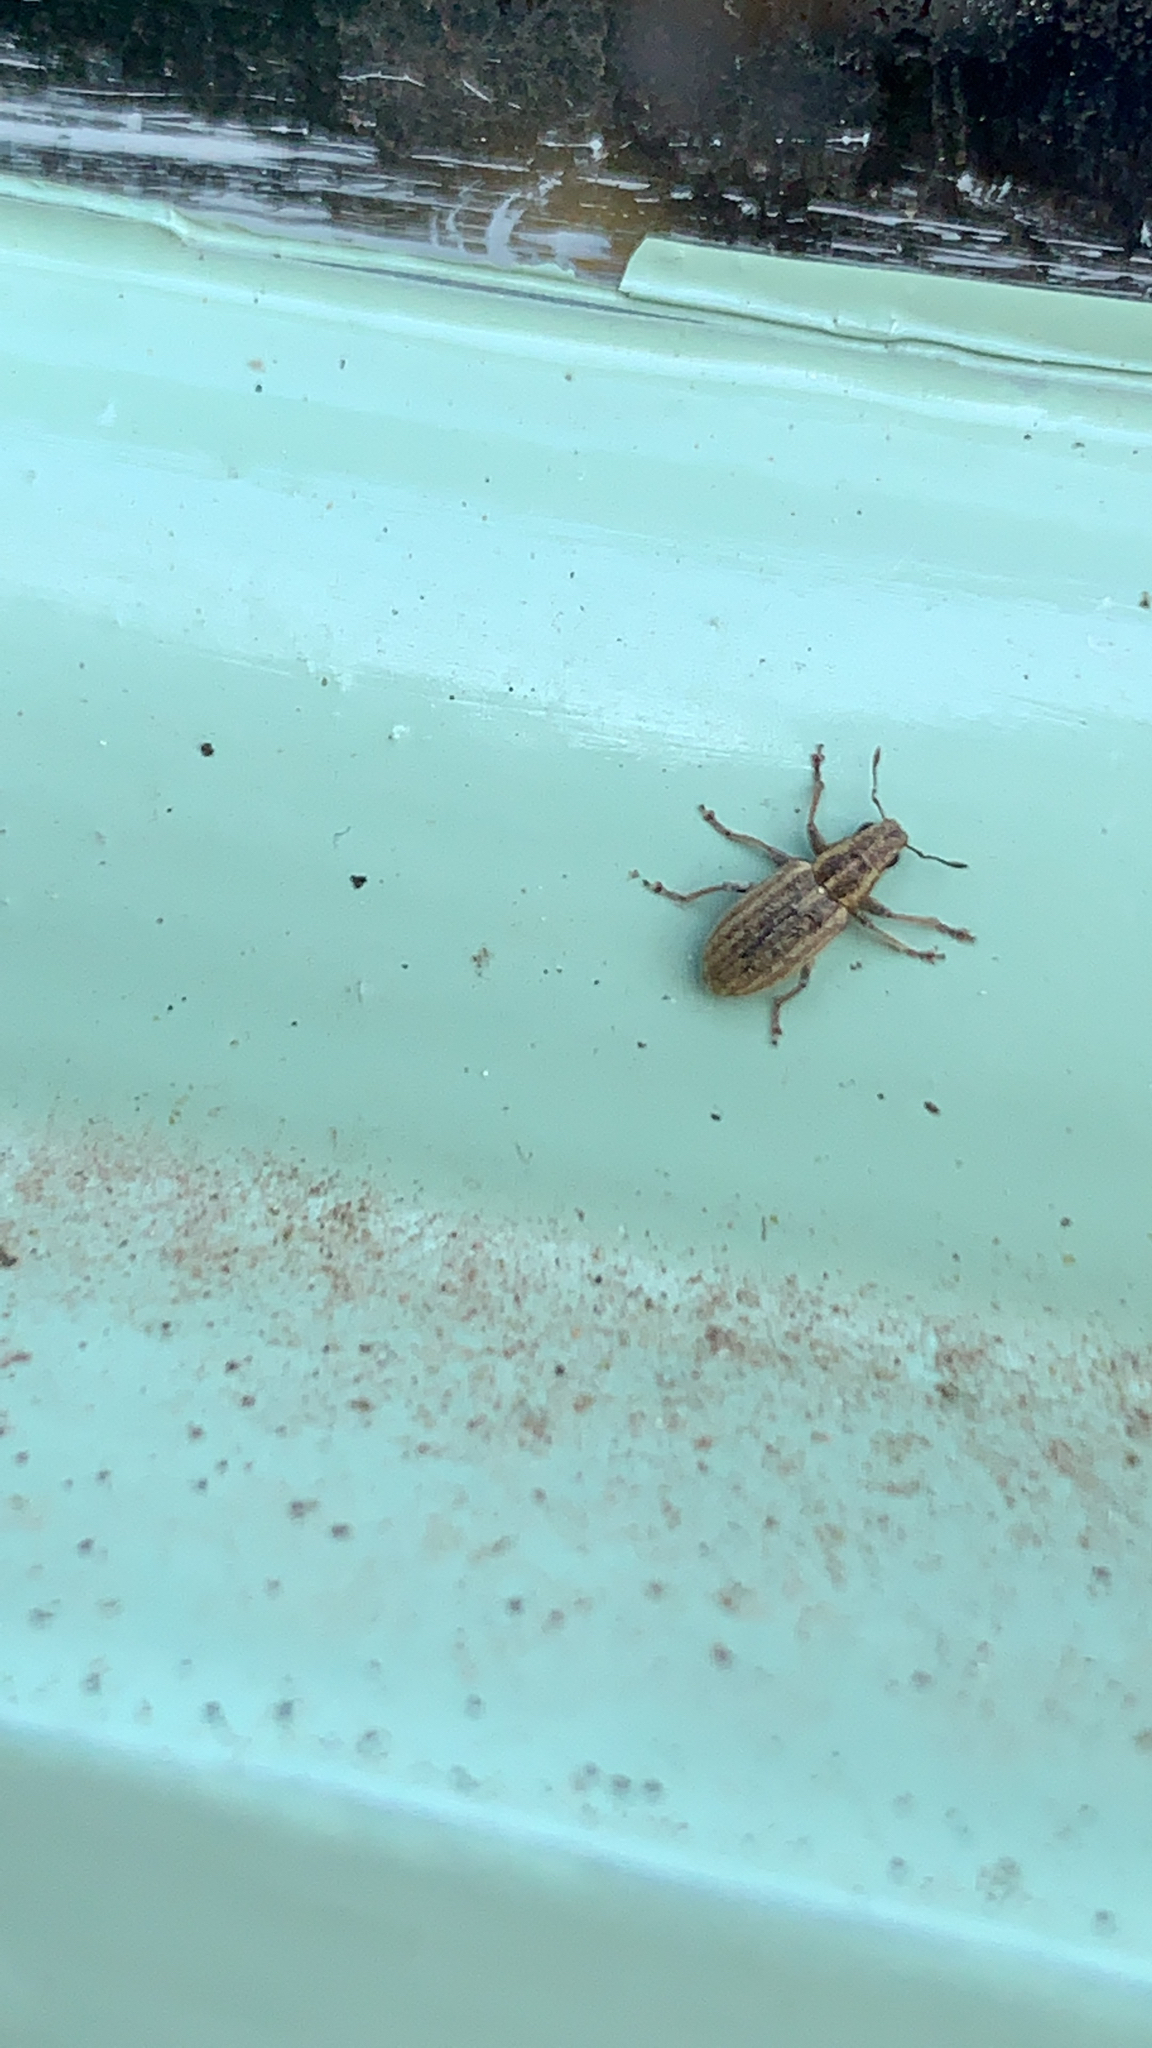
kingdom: Animalia
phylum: Arthropoda
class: Insecta
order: Coleoptera
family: Curculionidae
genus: Sitona
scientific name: Sitona lineatus
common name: Weevil
